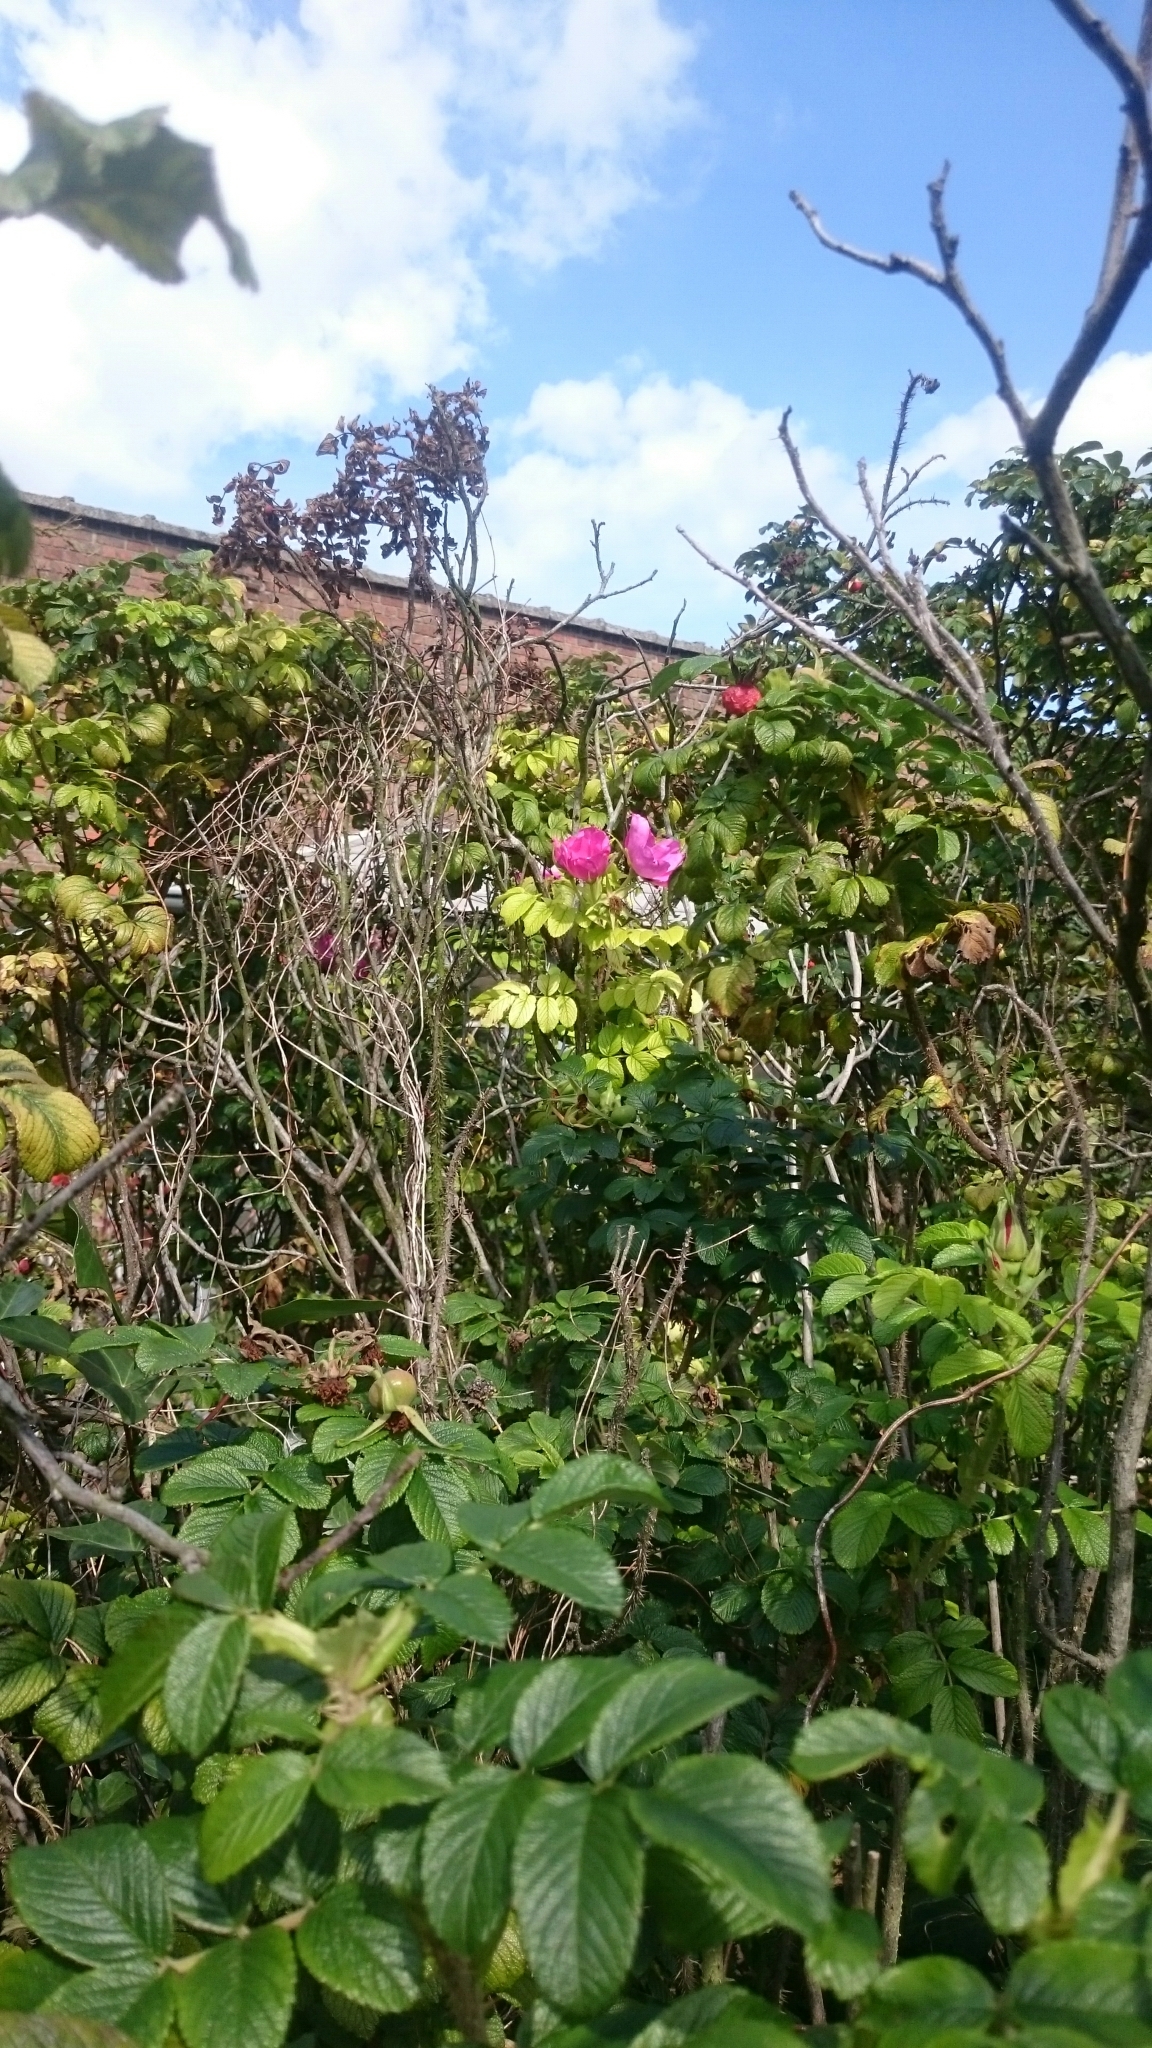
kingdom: Plantae
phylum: Tracheophyta
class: Magnoliopsida
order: Rosales
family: Rosaceae
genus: Rosa
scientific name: Rosa rugosa
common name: Japanese rose
